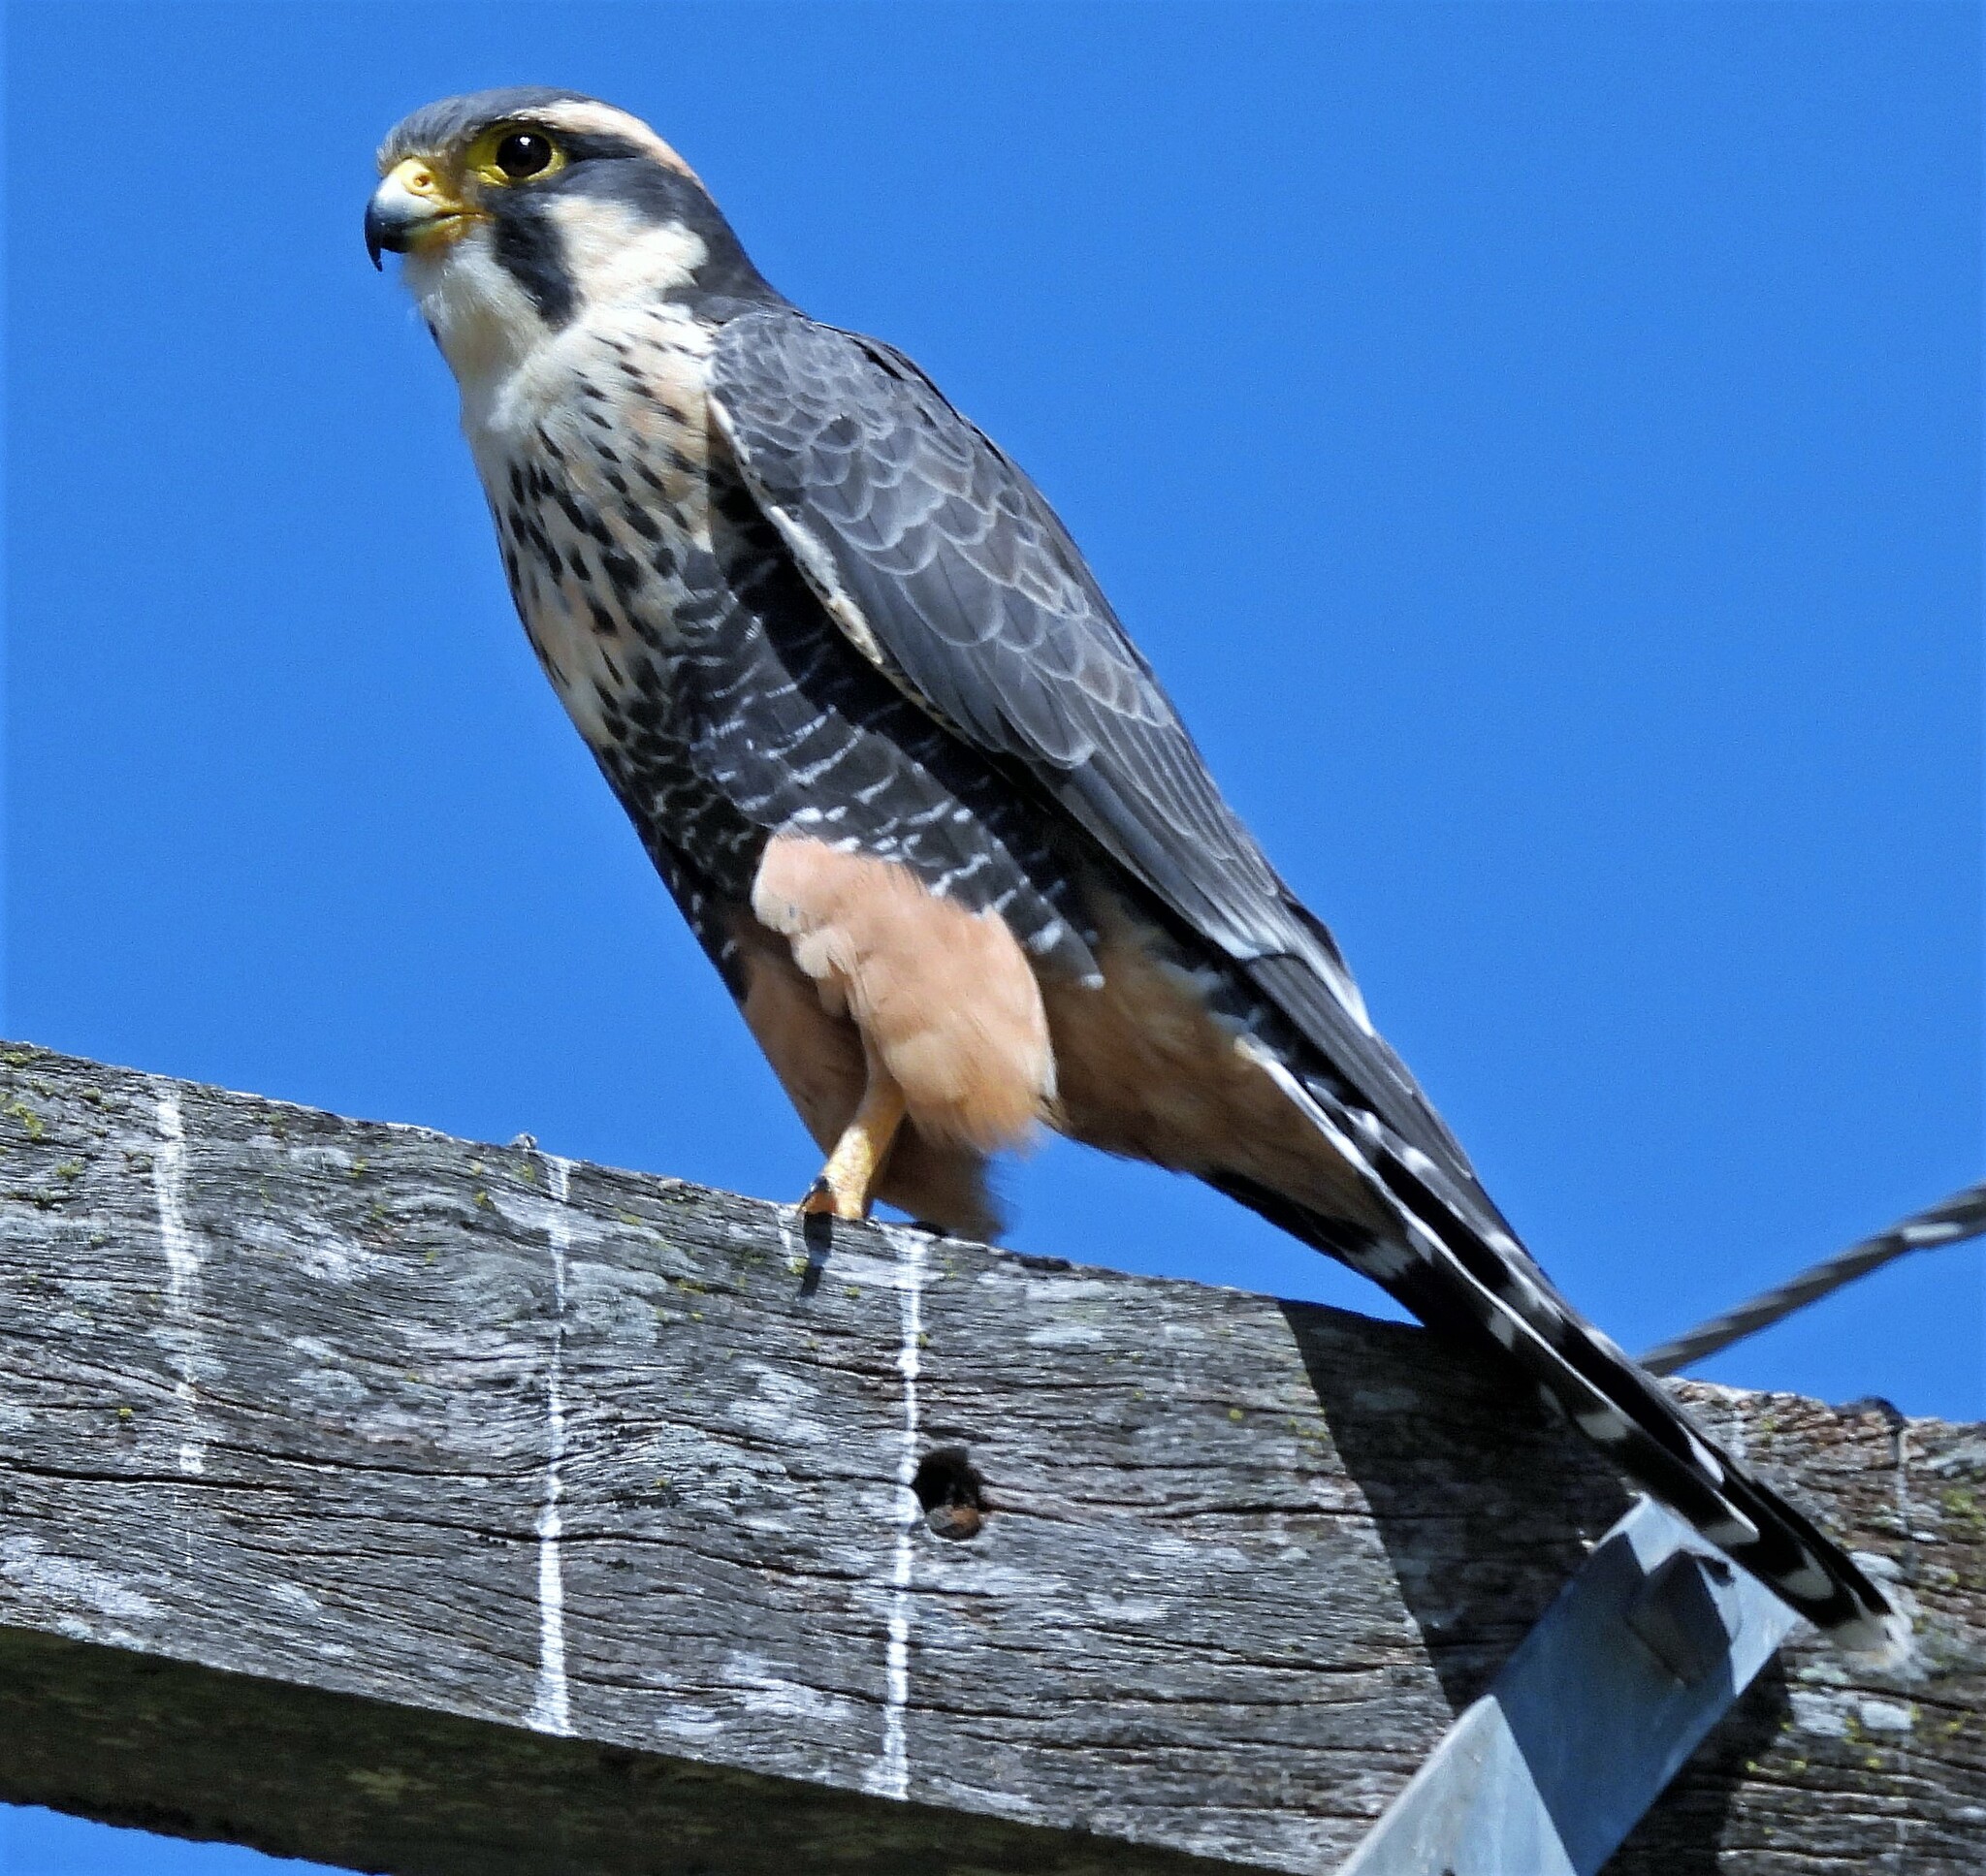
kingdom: Animalia
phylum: Chordata
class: Aves
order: Falconiformes
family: Falconidae
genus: Falco
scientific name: Falco femoralis
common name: Aplomado falcon
